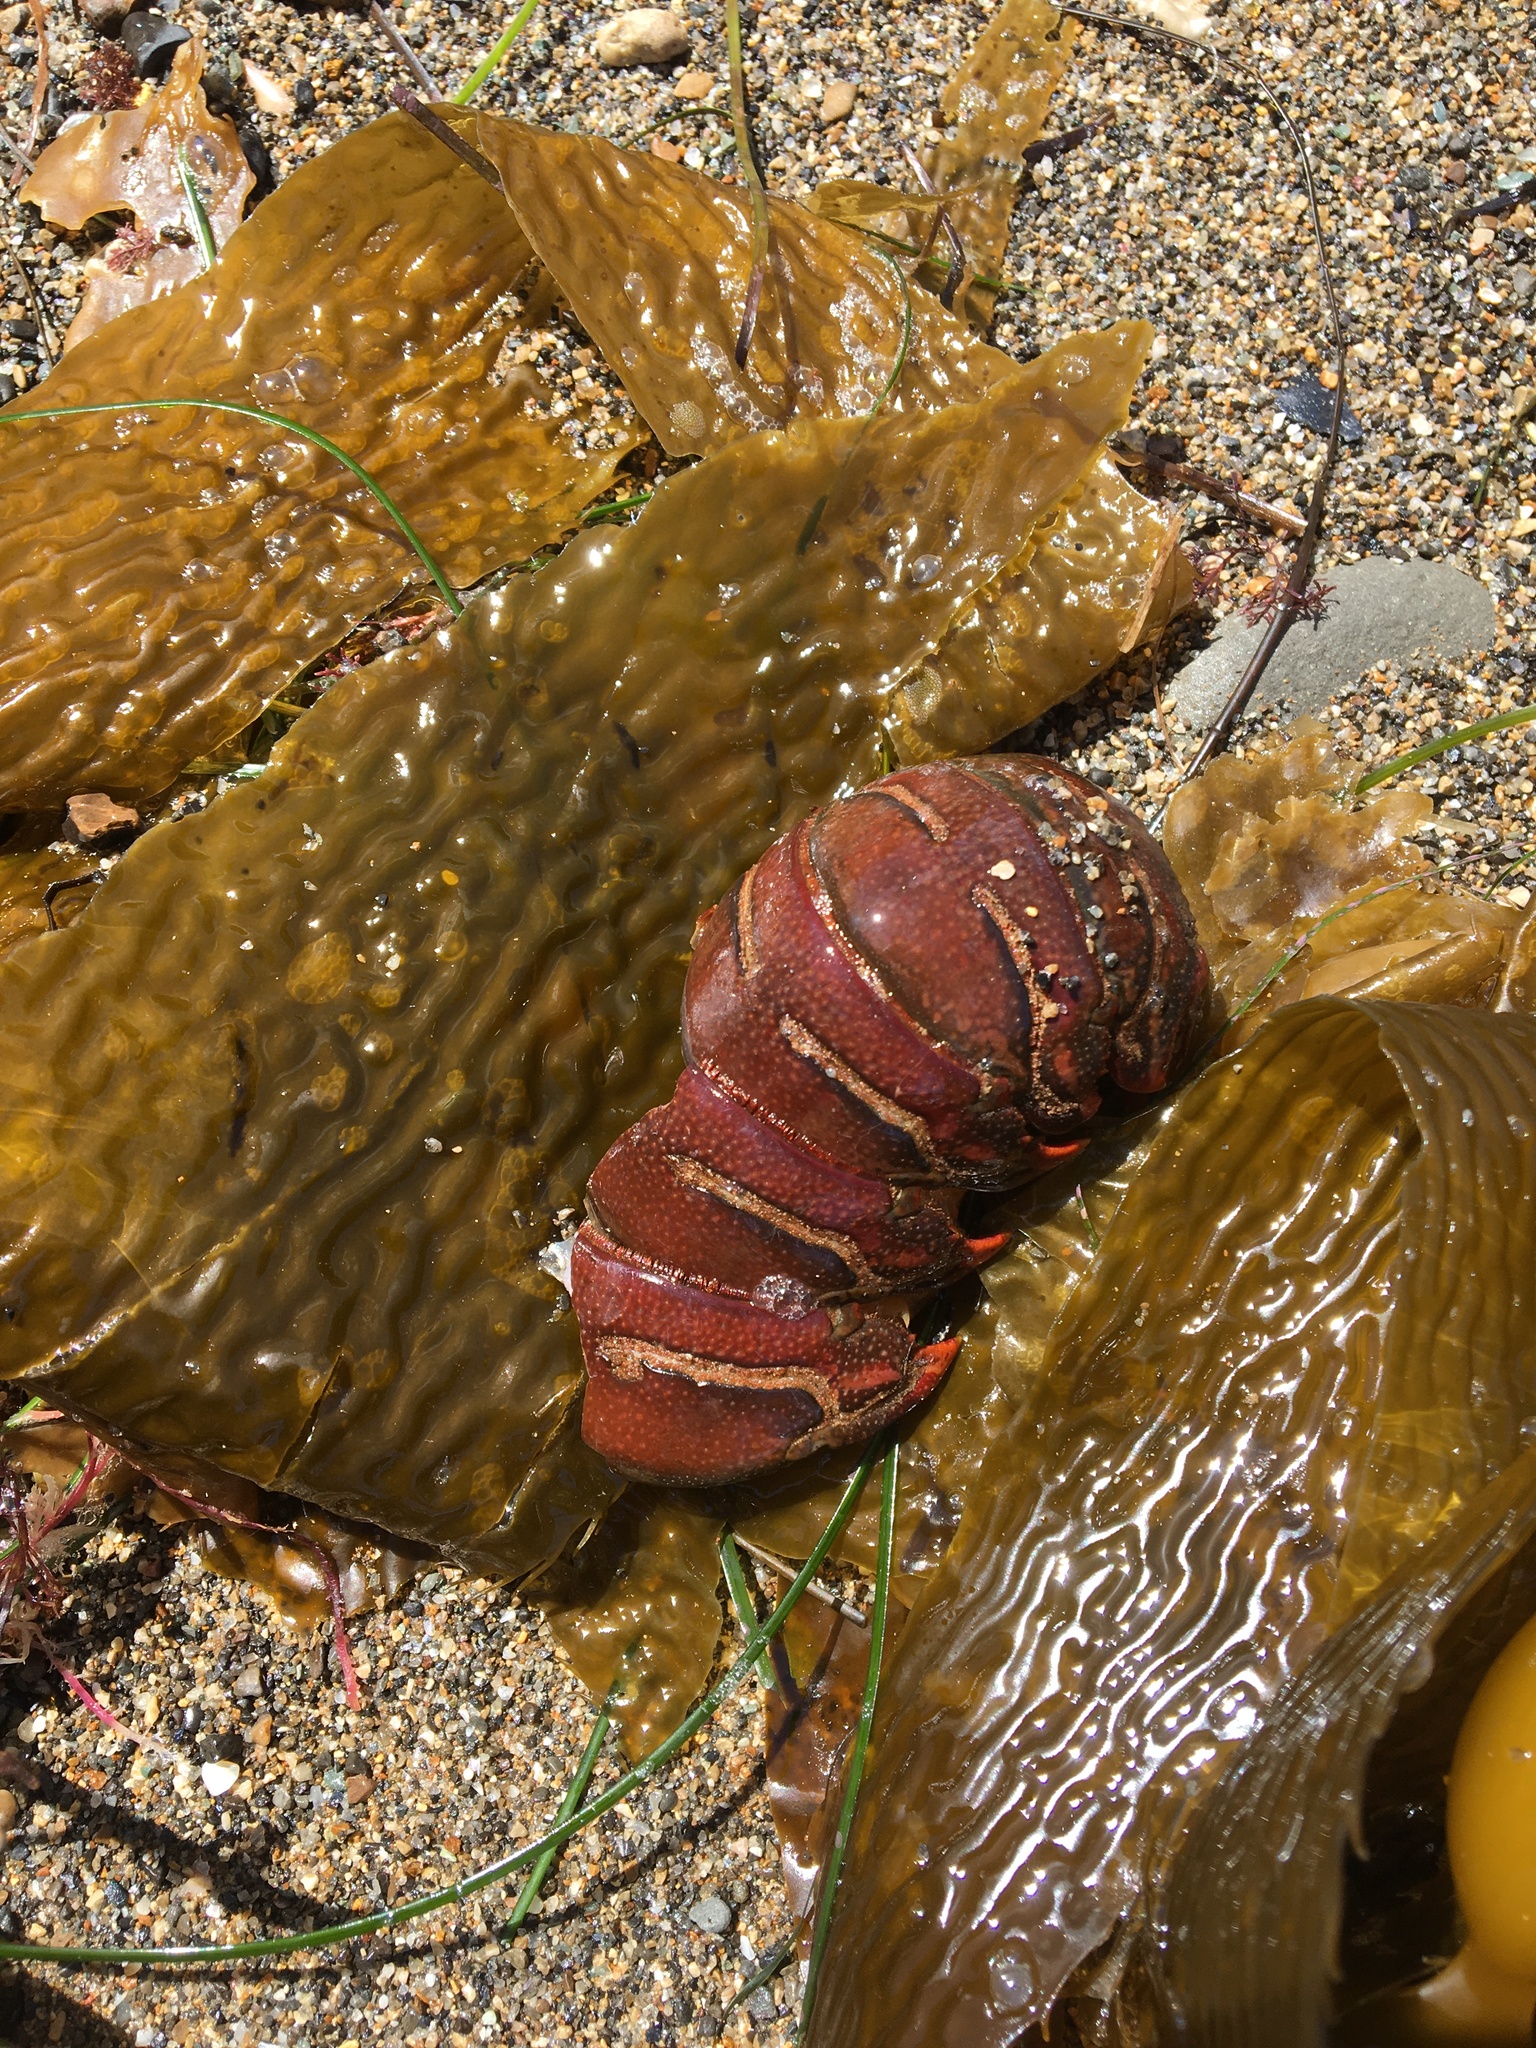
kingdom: Animalia
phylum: Arthropoda
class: Malacostraca
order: Decapoda
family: Palinuridae
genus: Panulirus
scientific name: Panulirus interruptus
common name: California spiny lobster
